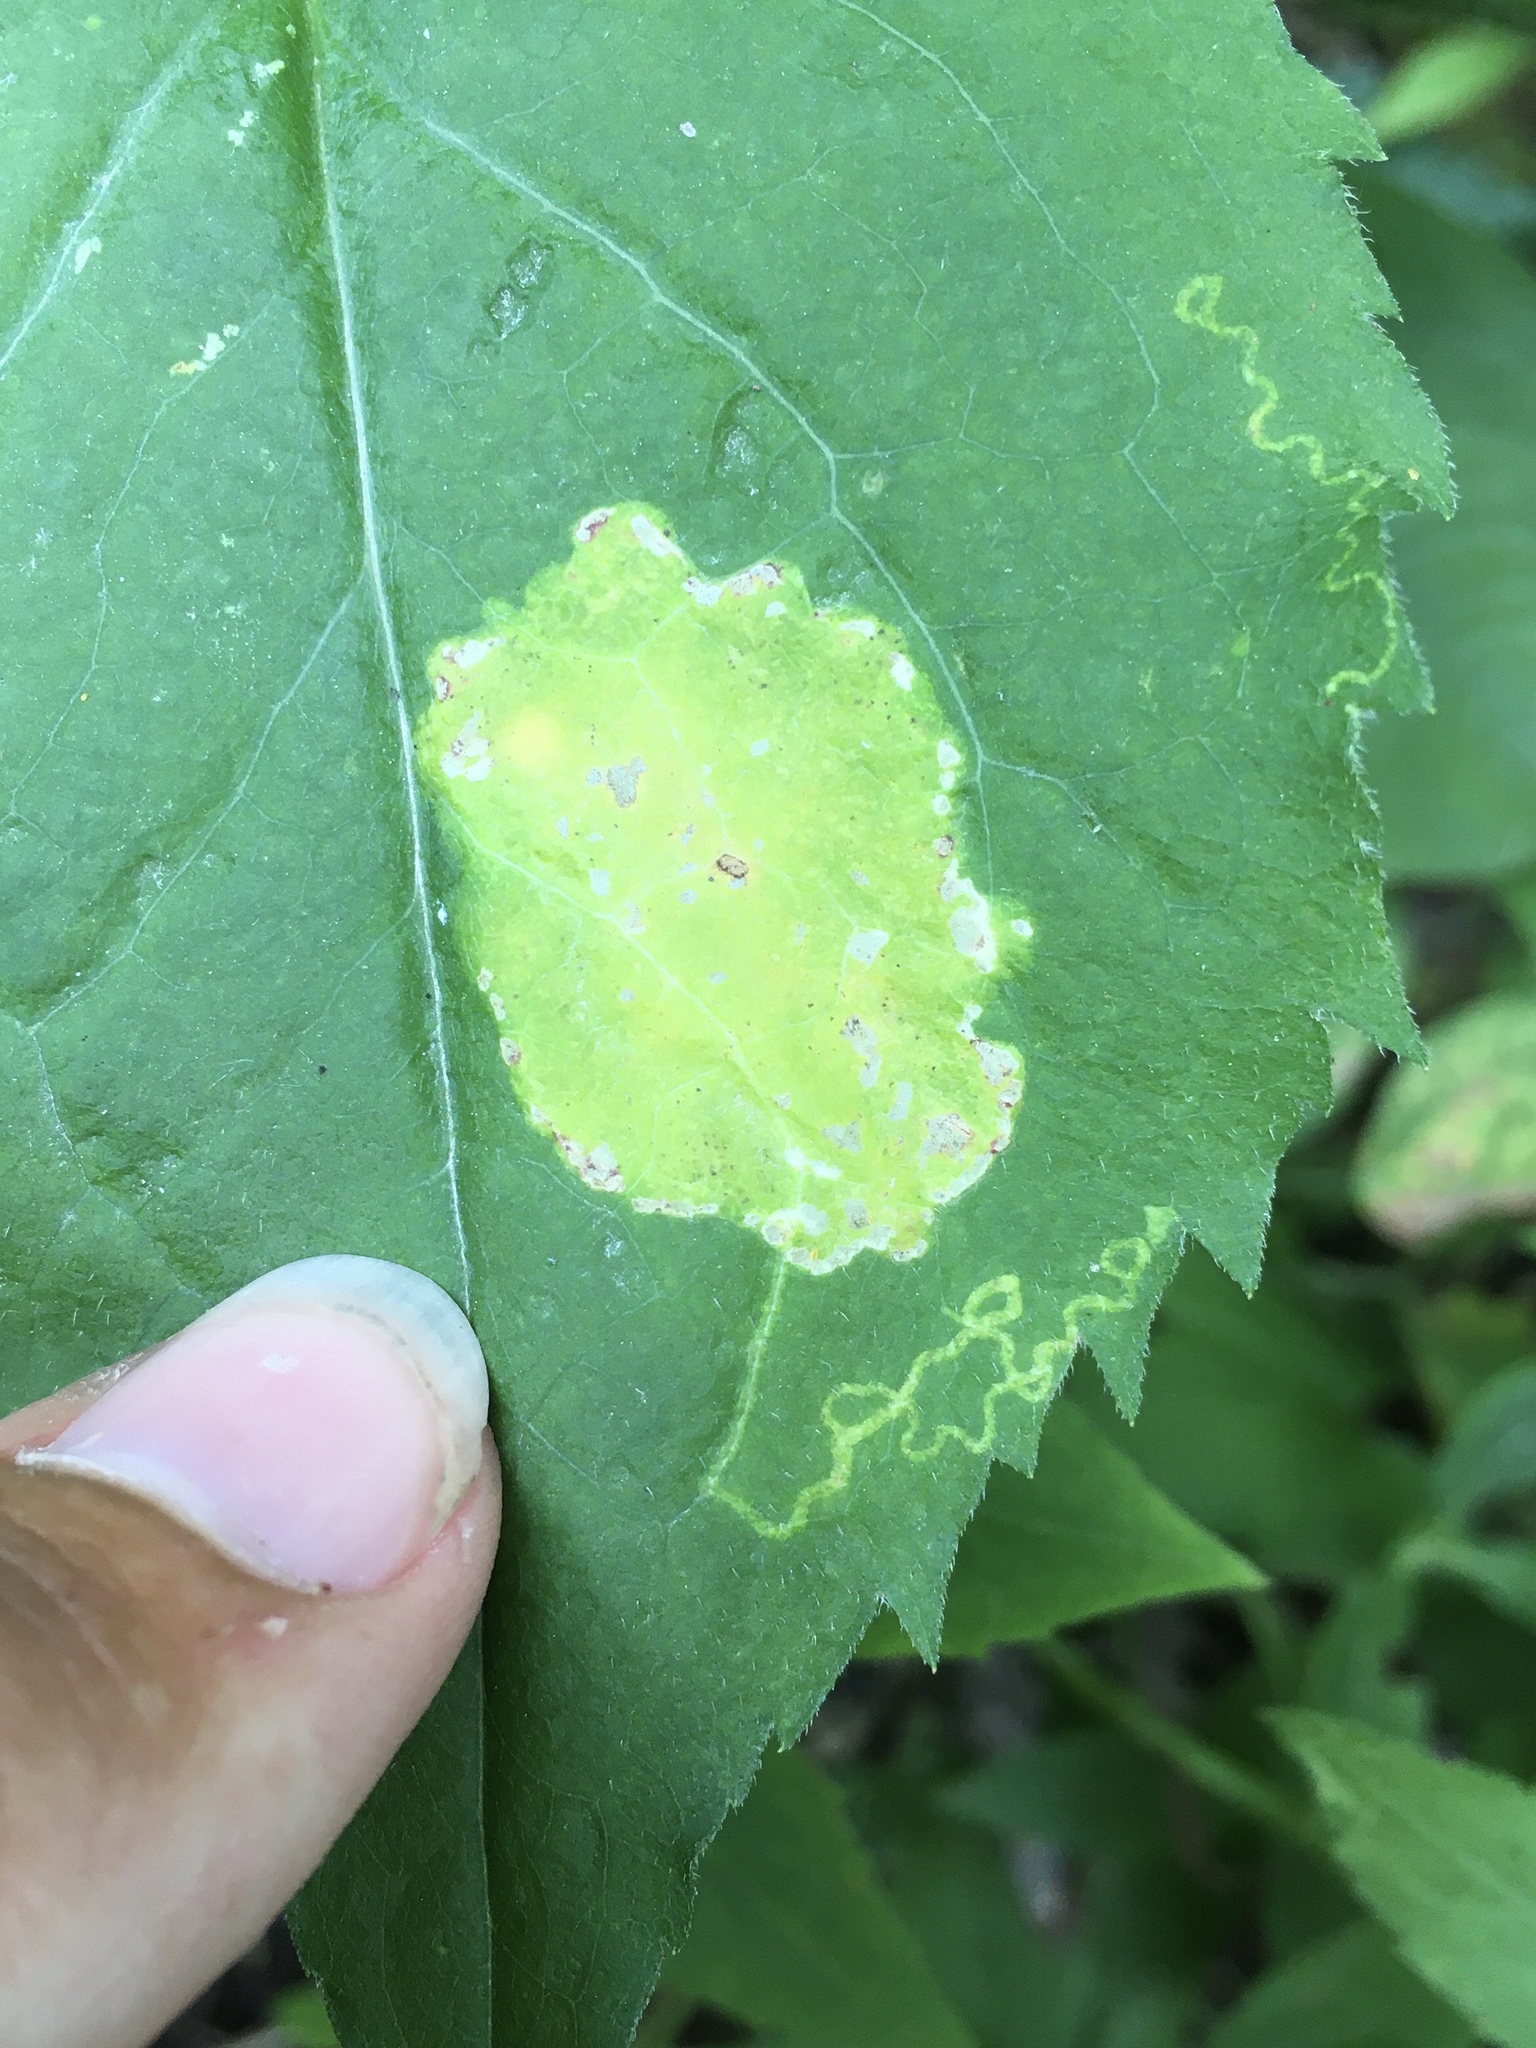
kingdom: Animalia
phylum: Arthropoda
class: Insecta
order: Lepidoptera
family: Gracillariidae
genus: Acrocercops
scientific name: Acrocercops astericola
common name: Aster tentiform blotchminer
